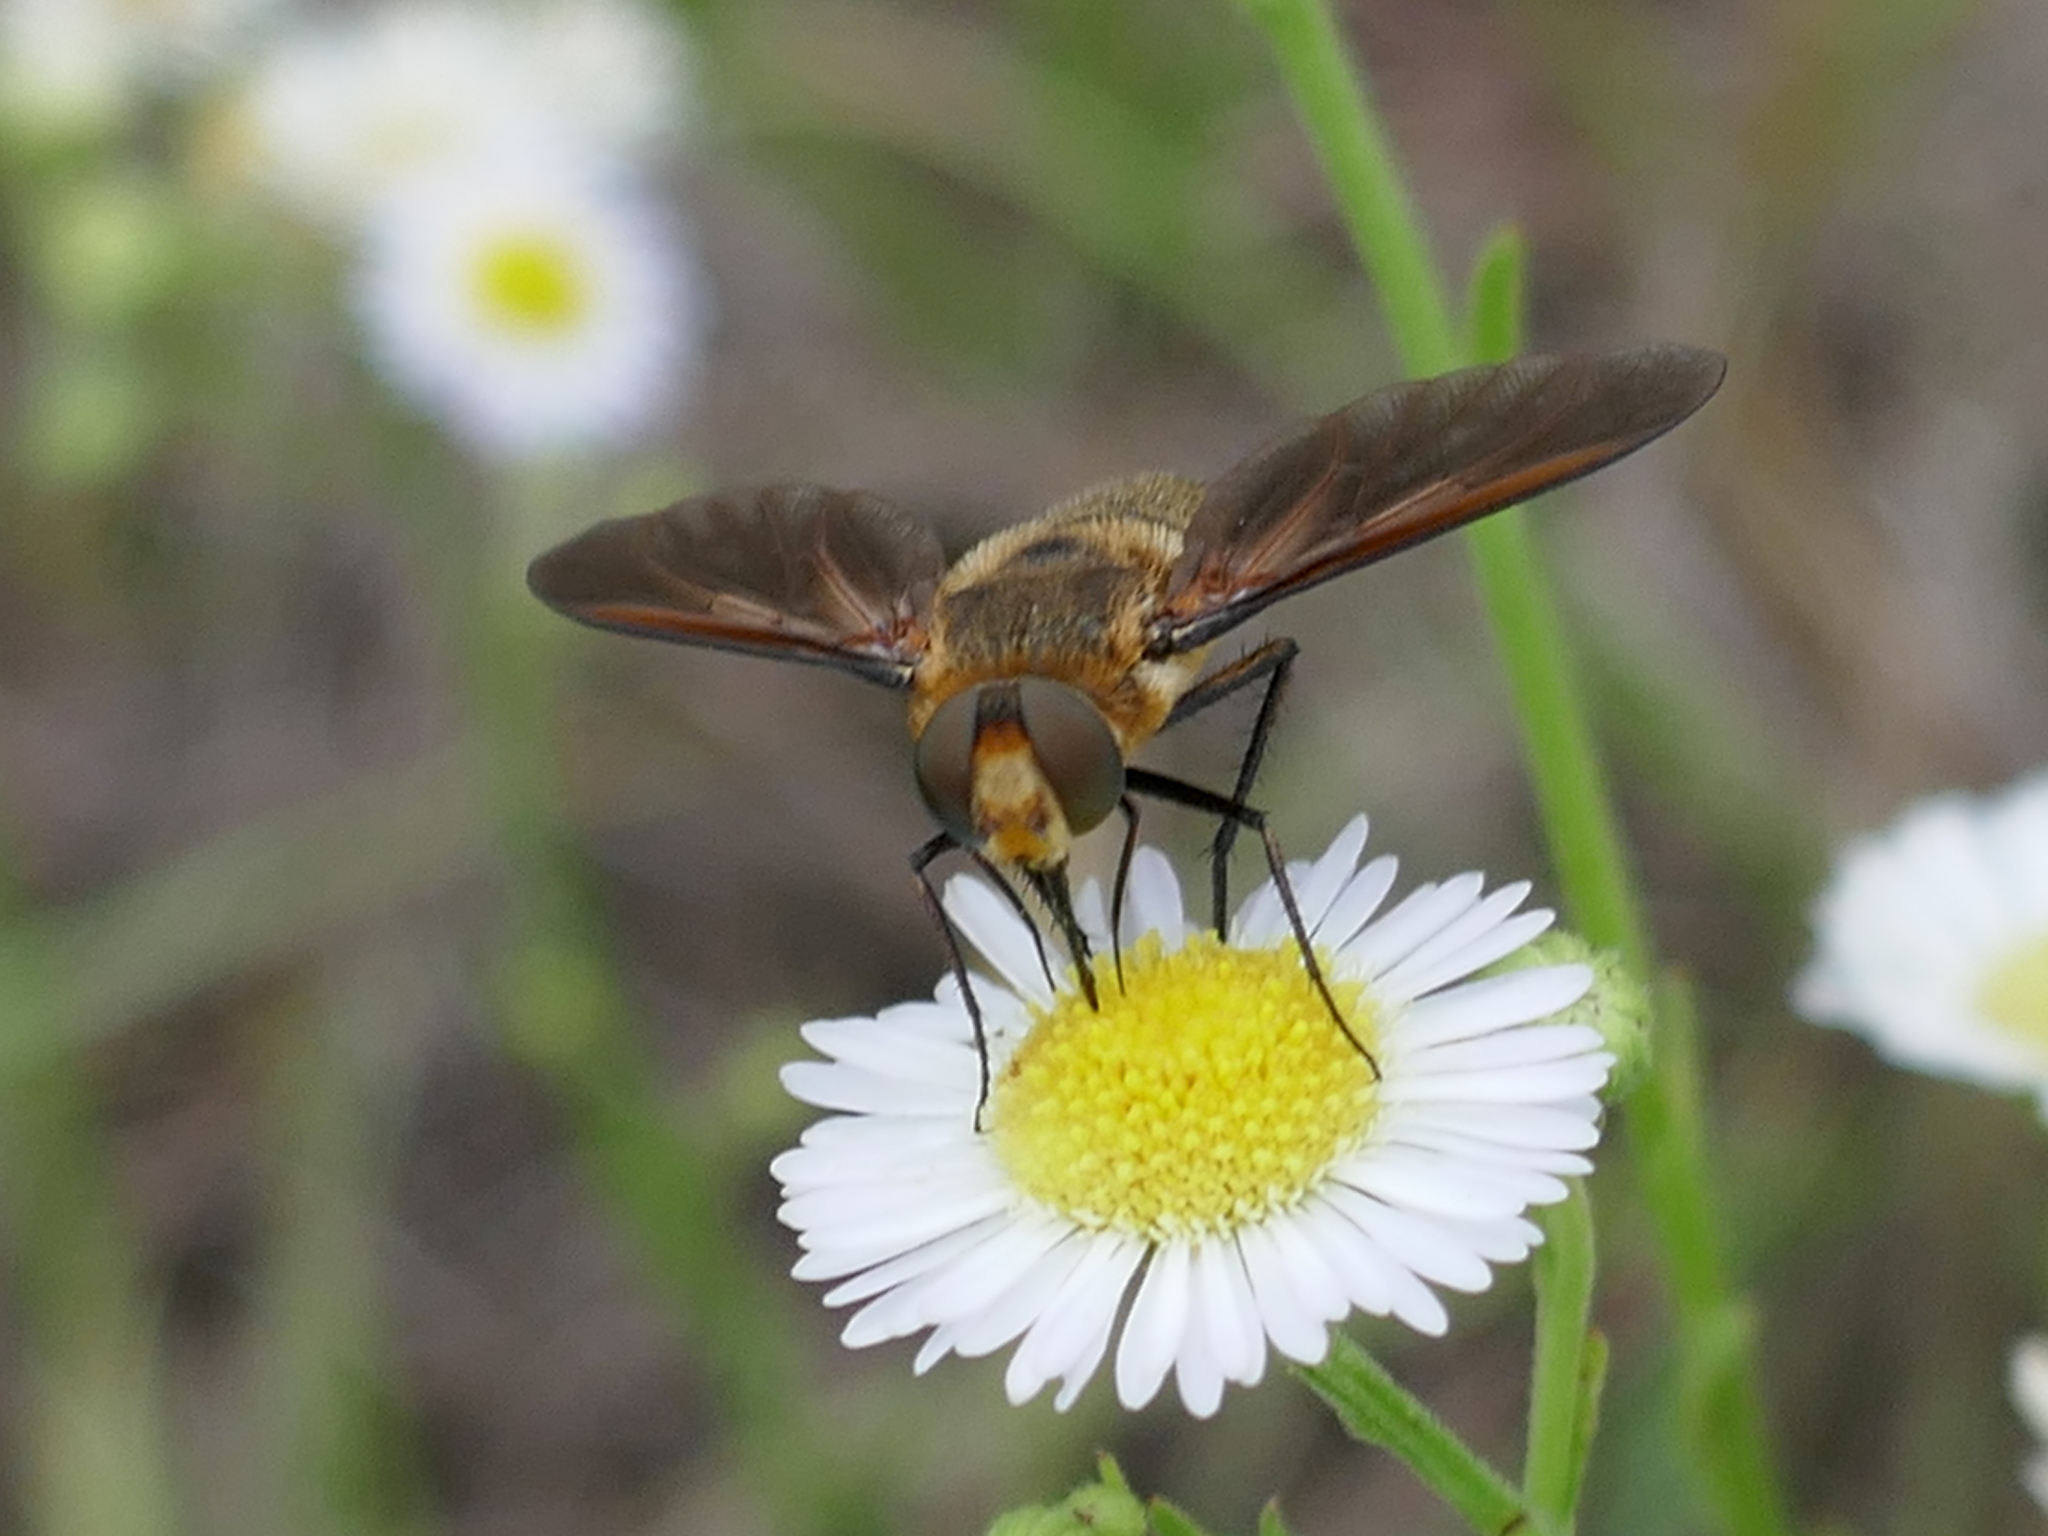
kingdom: Animalia
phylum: Arthropoda
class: Insecta
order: Diptera
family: Bombyliidae
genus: Poecilanthrax
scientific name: Poecilanthrax lucifer
